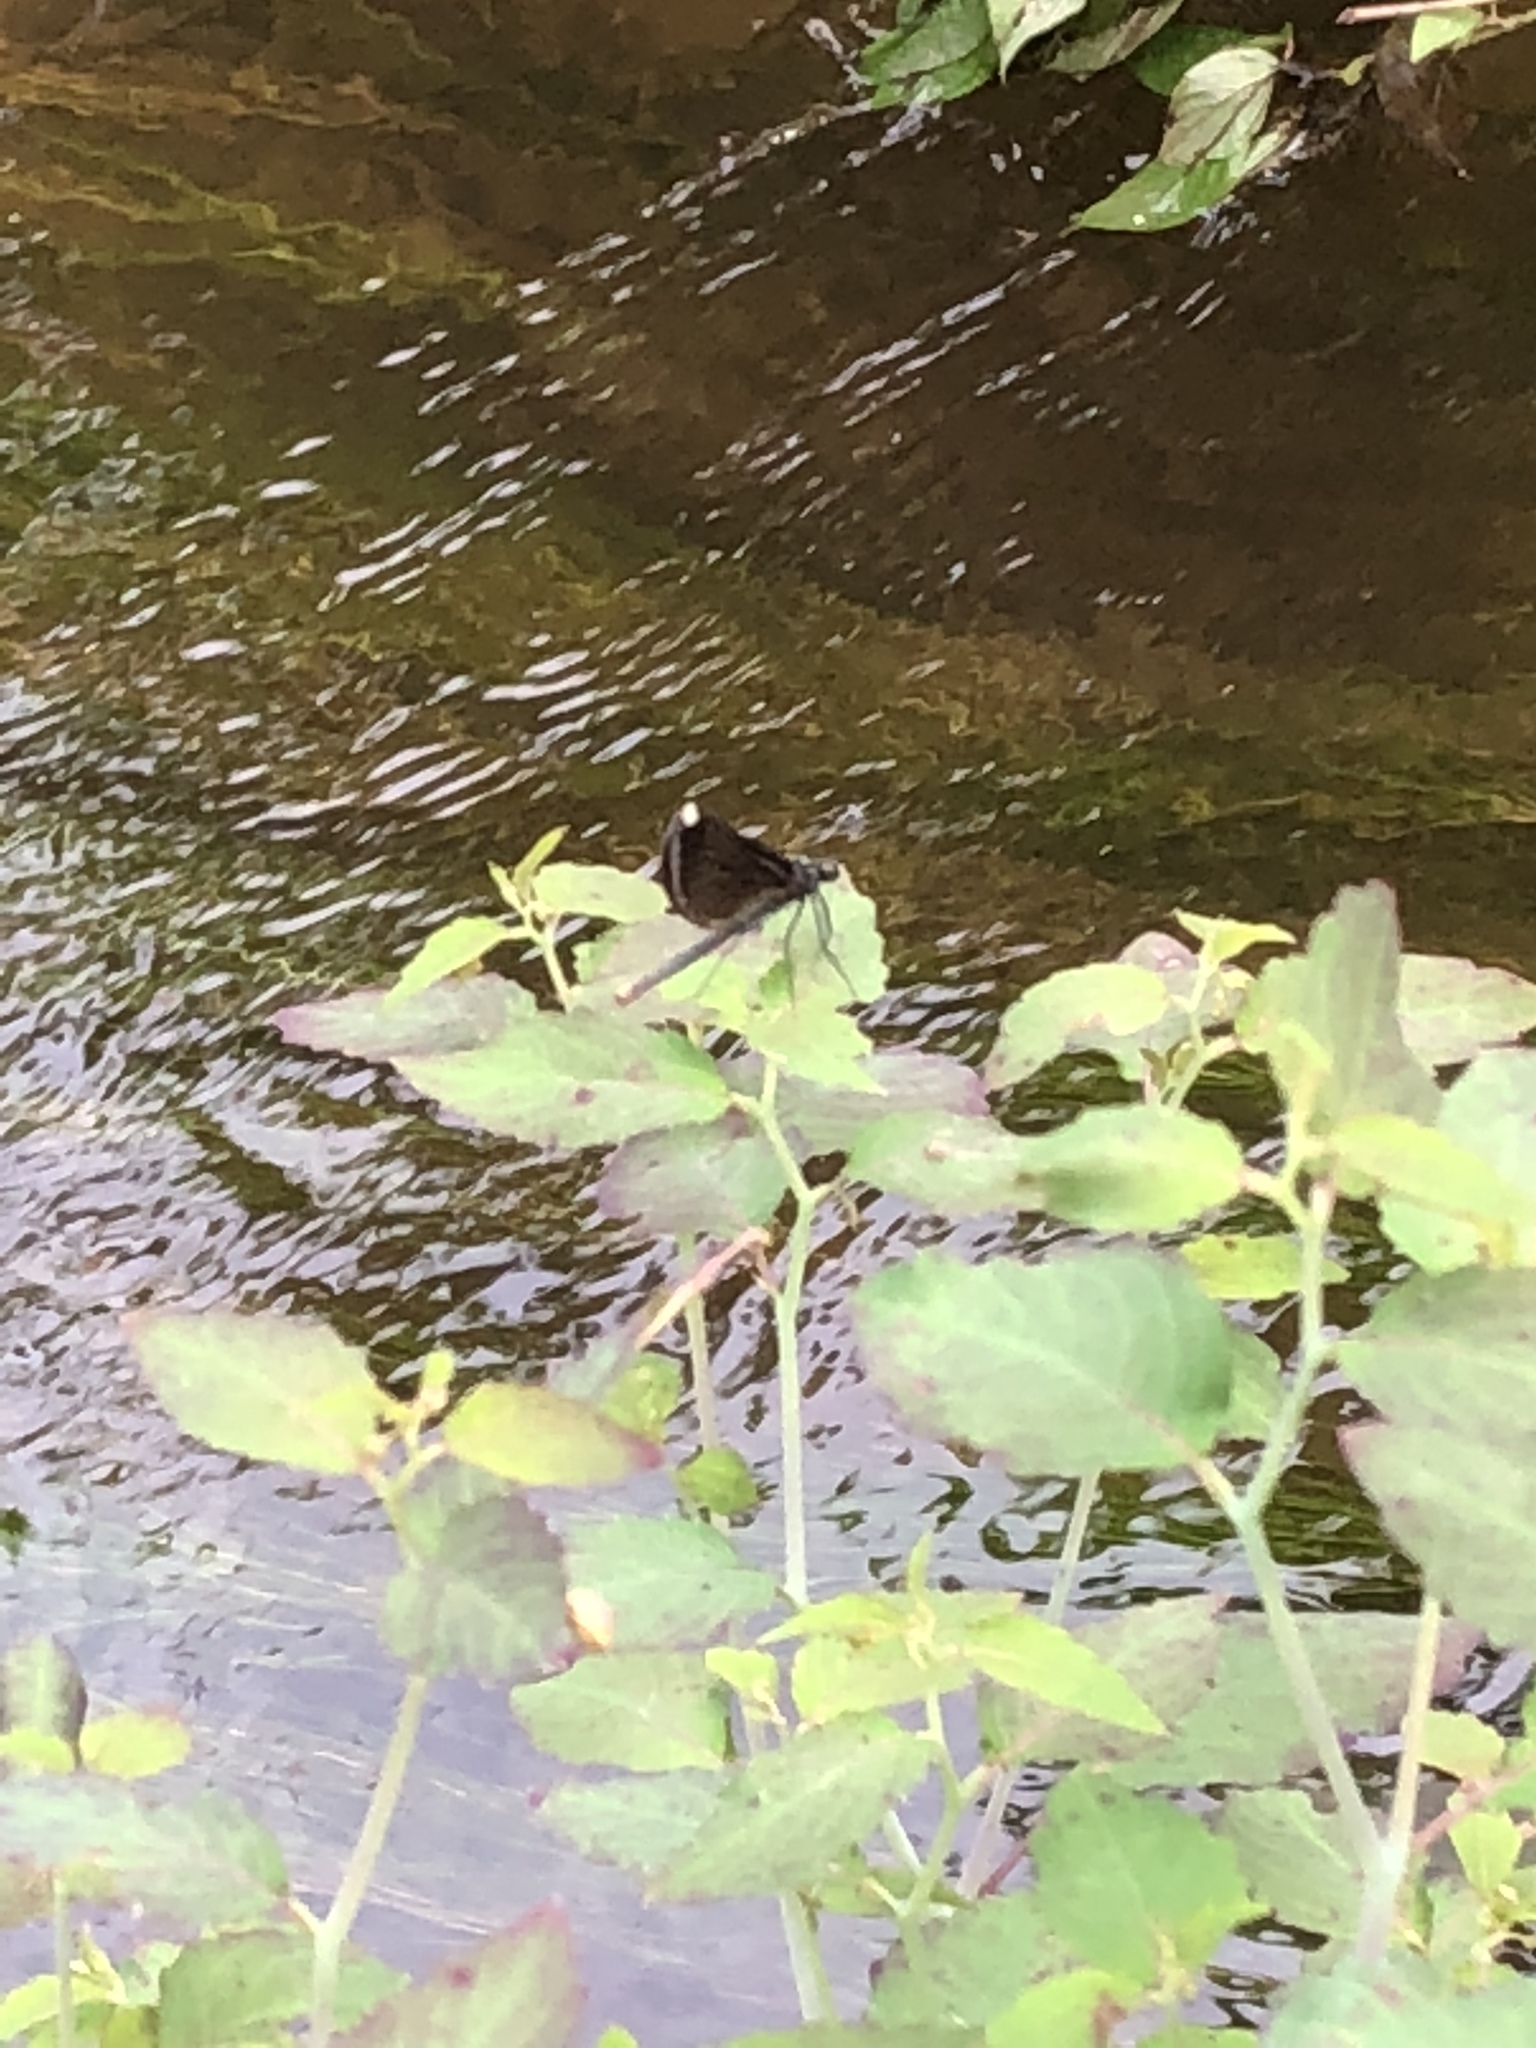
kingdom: Animalia
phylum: Arthropoda
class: Insecta
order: Odonata
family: Calopterygidae
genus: Calopteryx
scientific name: Calopteryx maculata
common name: Ebony jewelwing
